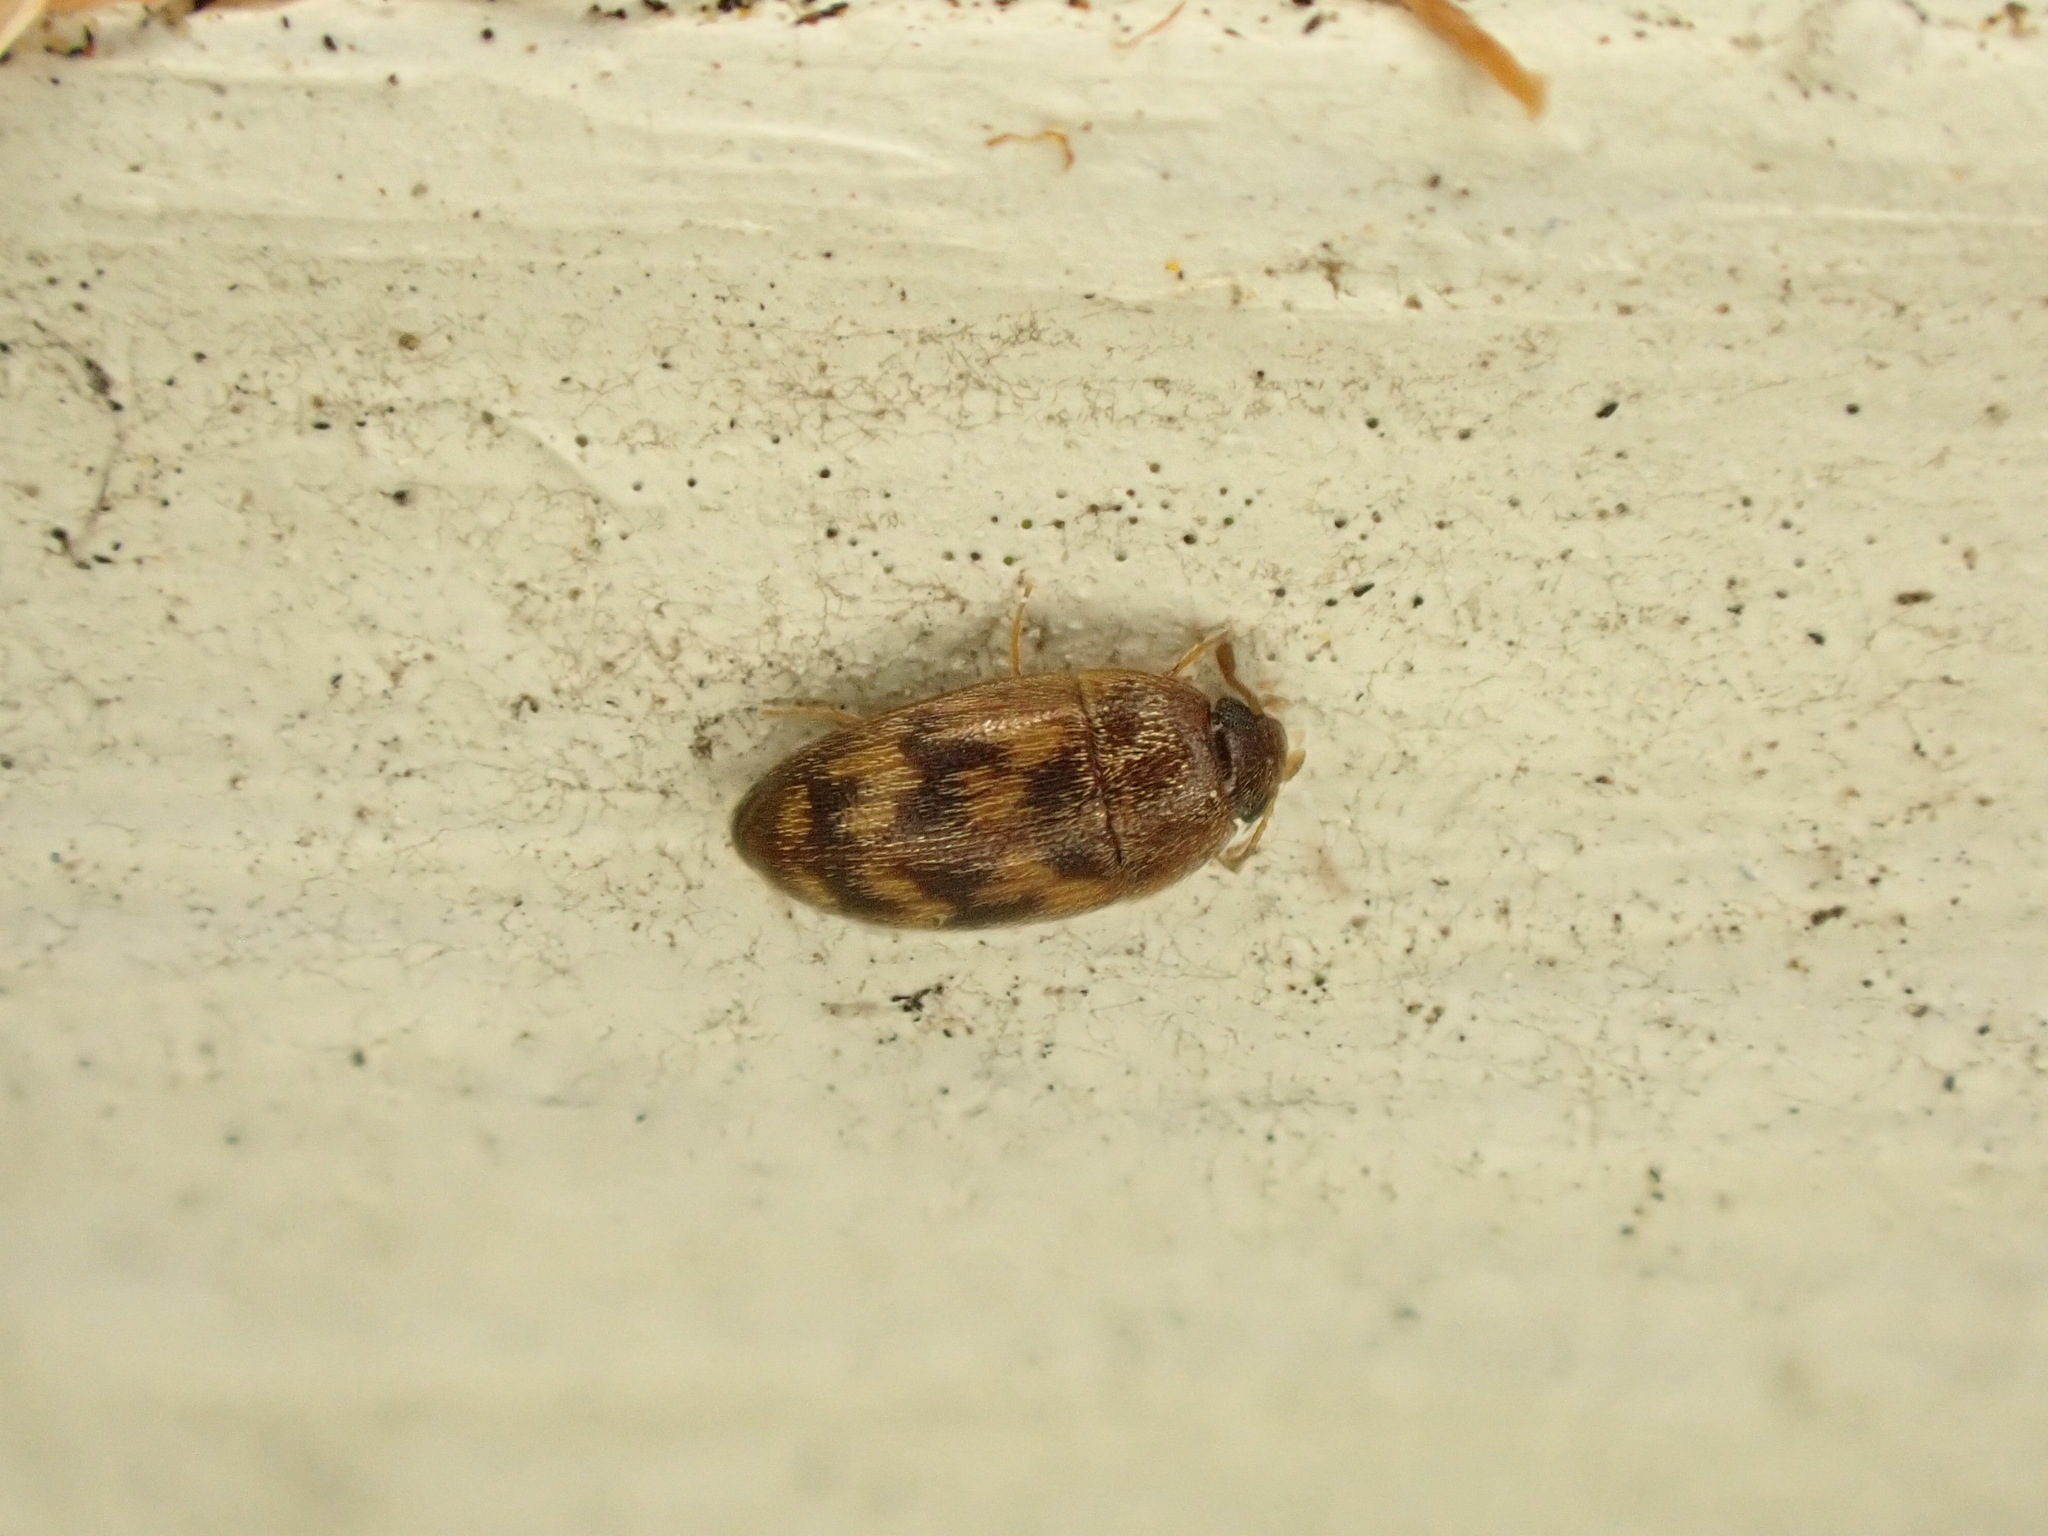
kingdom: Animalia
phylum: Arthropoda
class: Insecta
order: Coleoptera
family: Mycetophagidae
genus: Litargus
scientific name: Litargus vestitus
